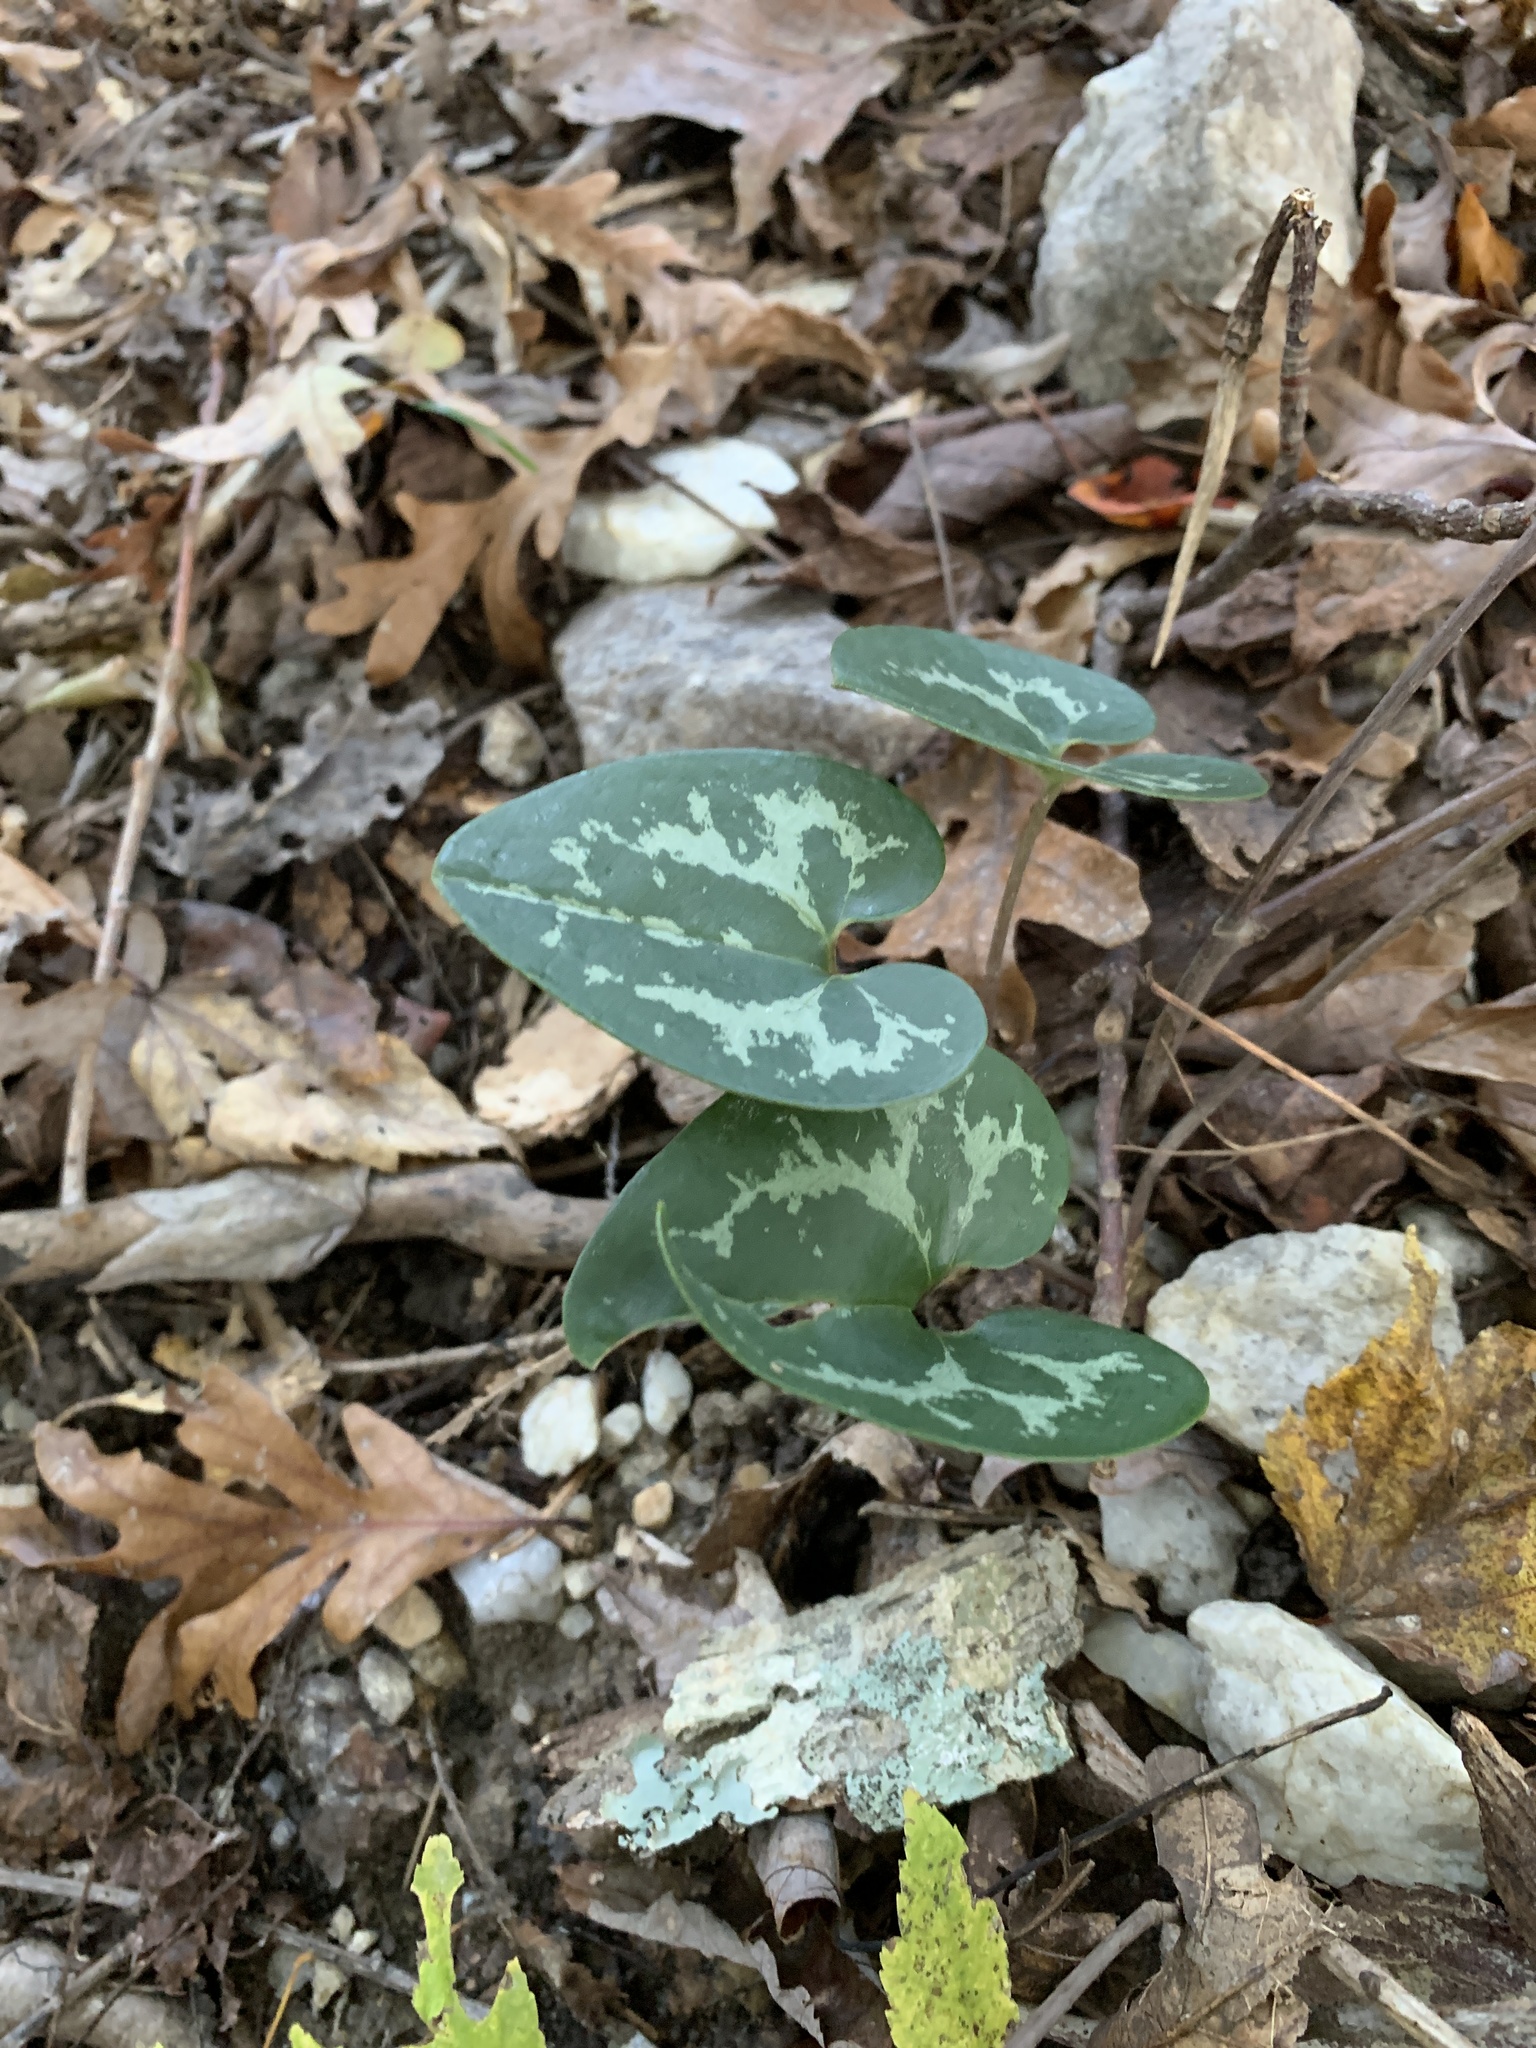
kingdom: Plantae
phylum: Tracheophyta
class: Magnoliopsida
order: Piperales
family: Aristolochiaceae
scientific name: Aristolochiaceae
